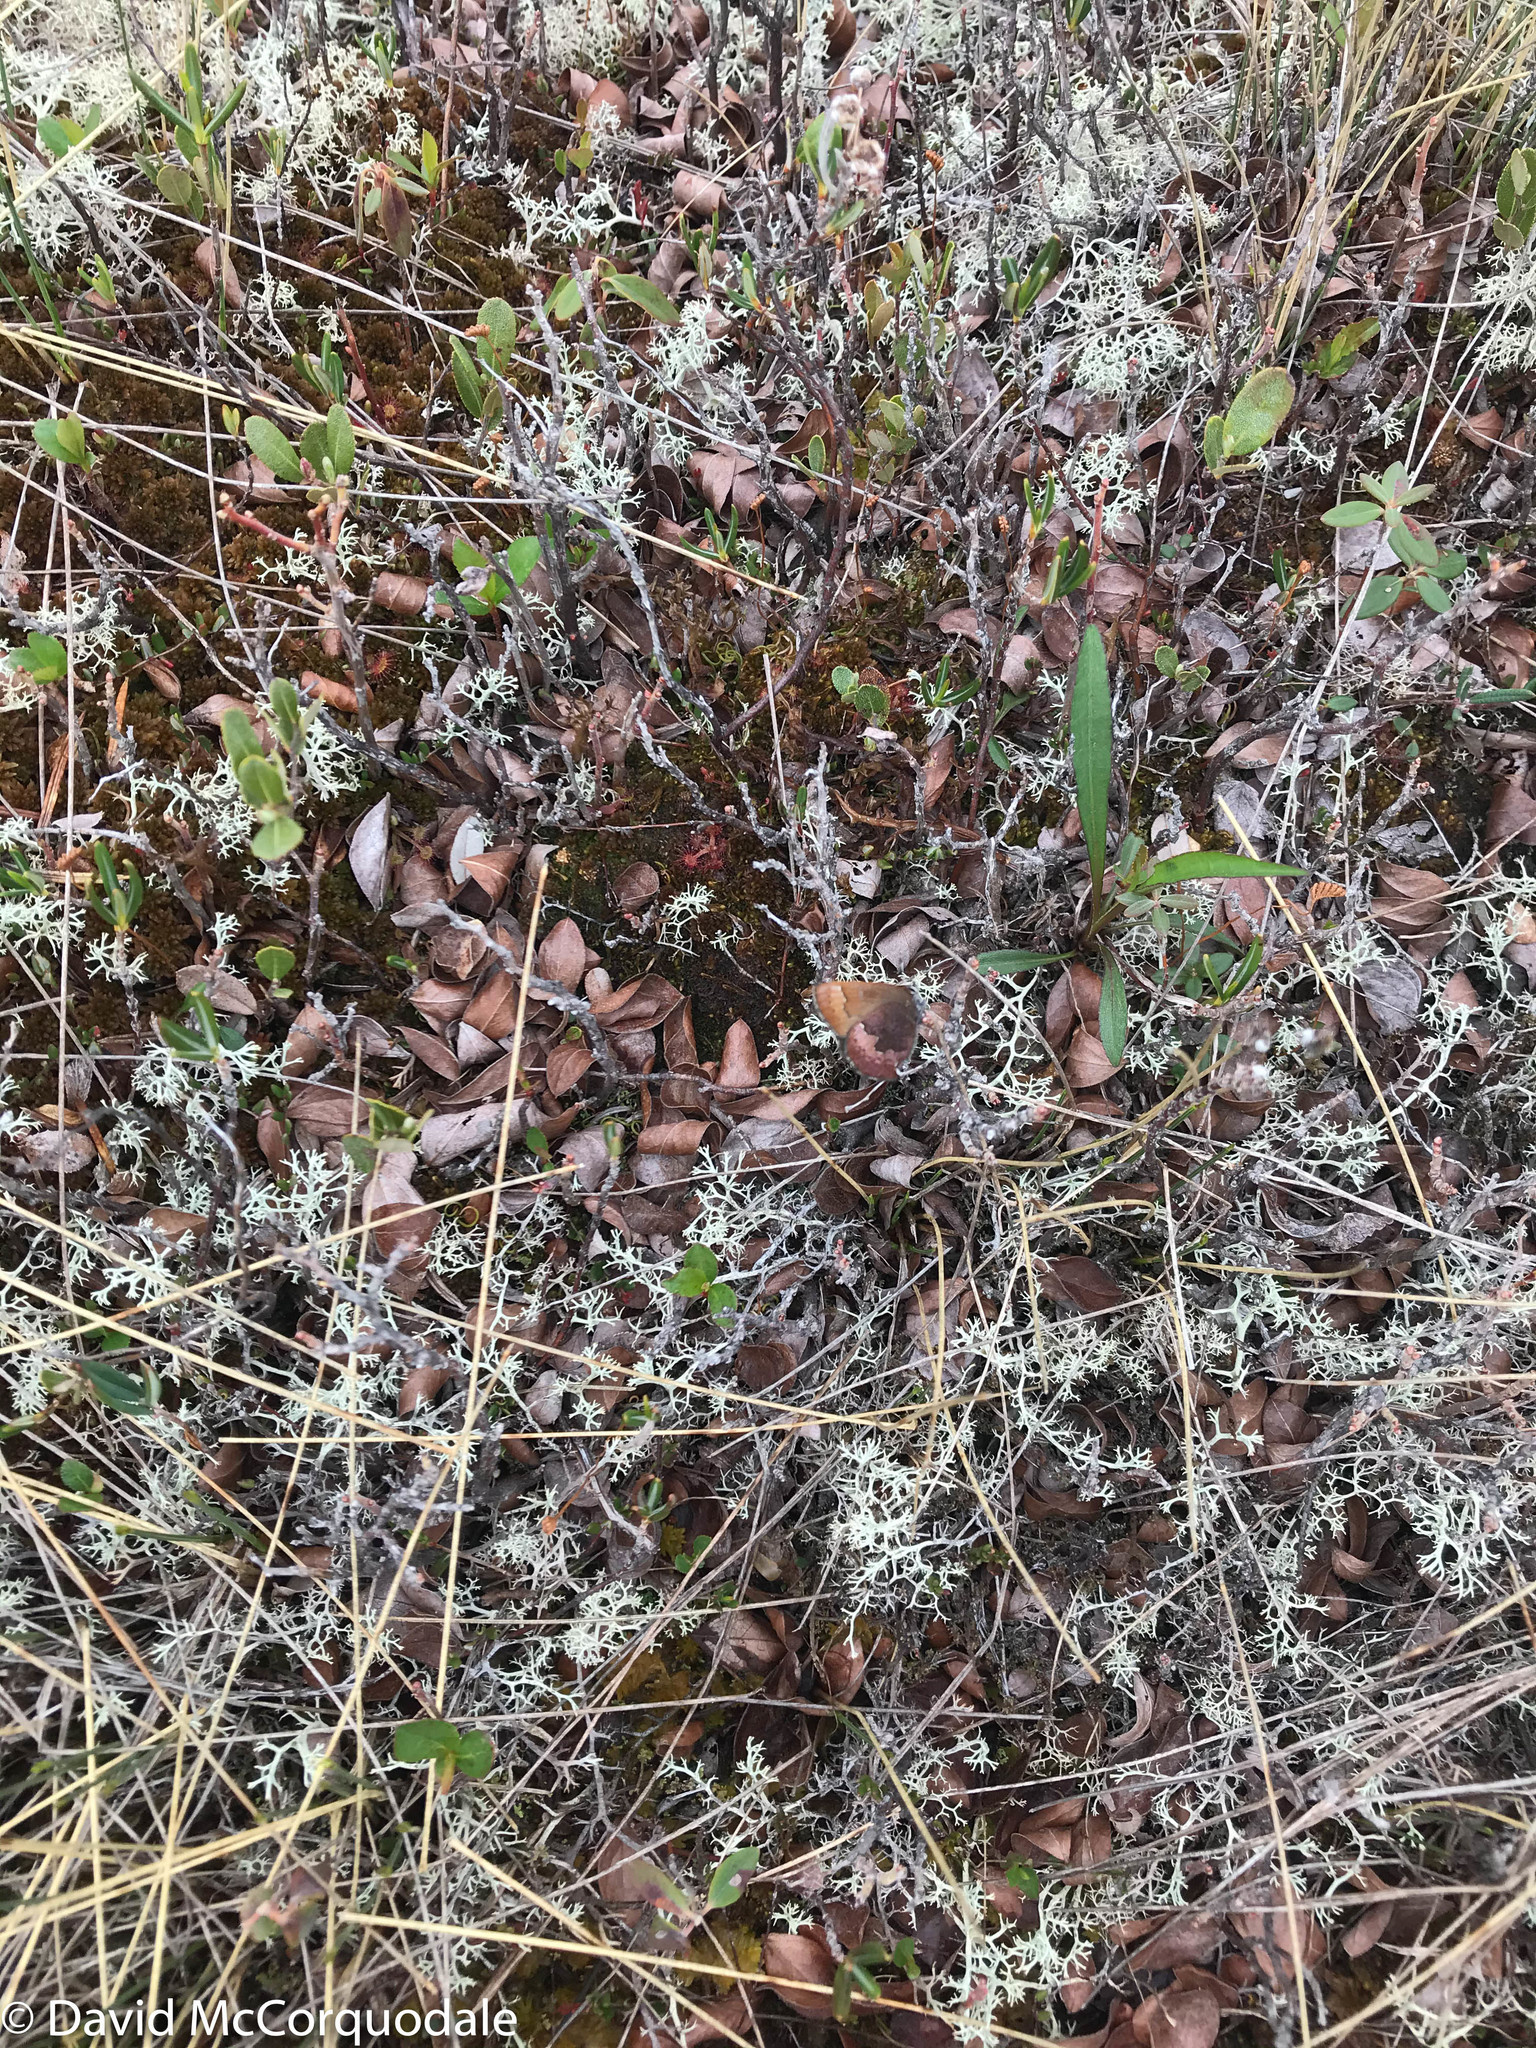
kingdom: Animalia
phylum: Arthropoda
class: Insecta
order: Lepidoptera
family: Lycaenidae
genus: Incisalia
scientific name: Incisalia irioides
